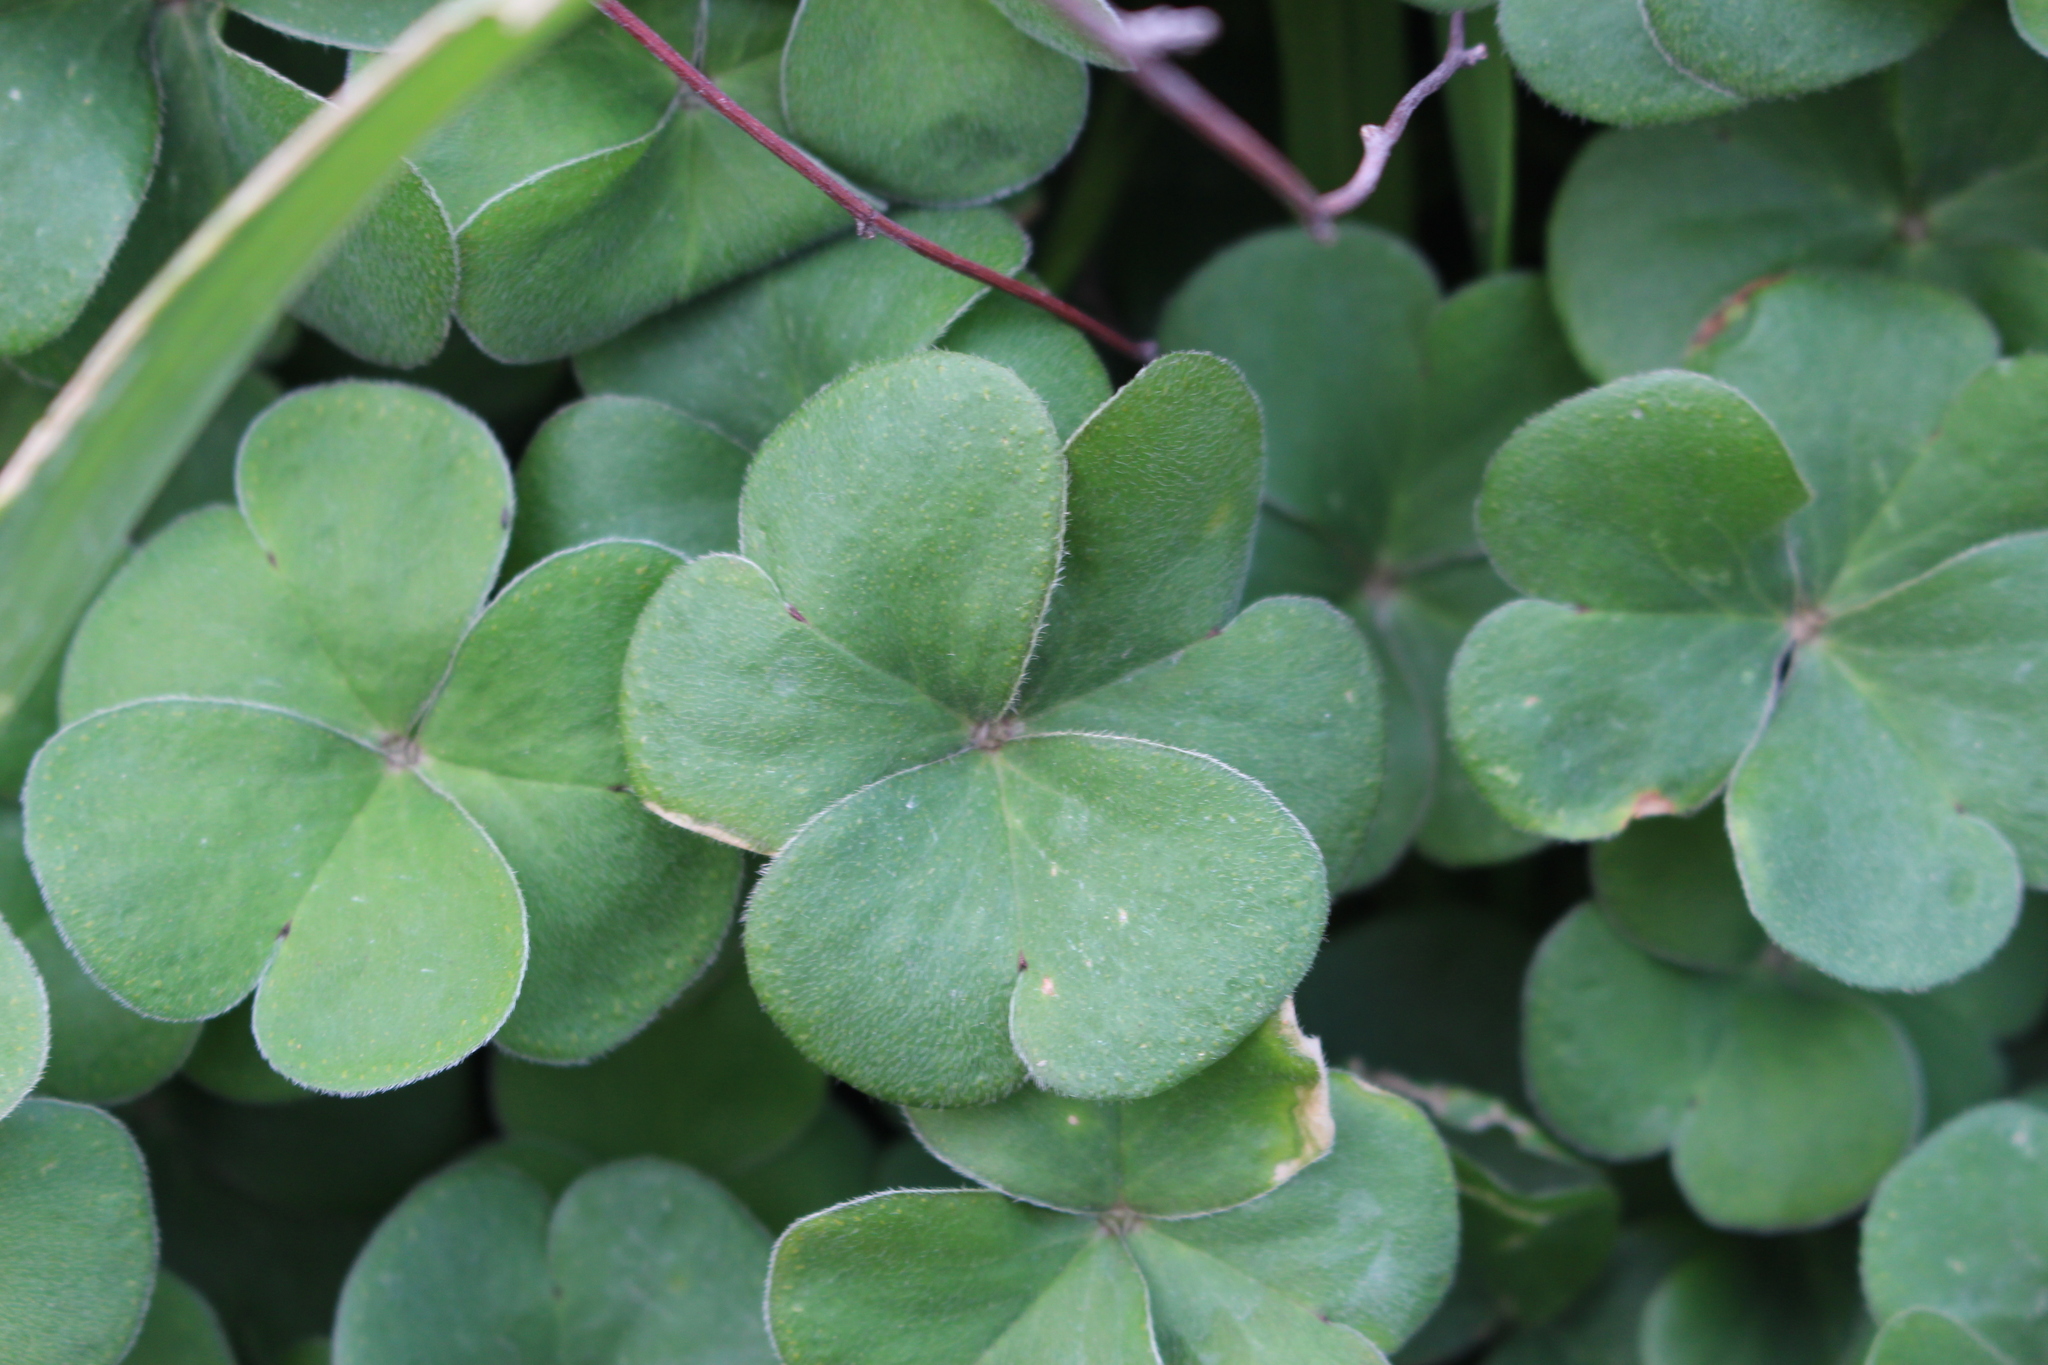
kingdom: Plantae
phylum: Tracheophyta
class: Magnoliopsida
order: Oxalidales
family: Oxalidaceae
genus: Oxalis
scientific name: Oxalis articulata
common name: Pink-sorrel
